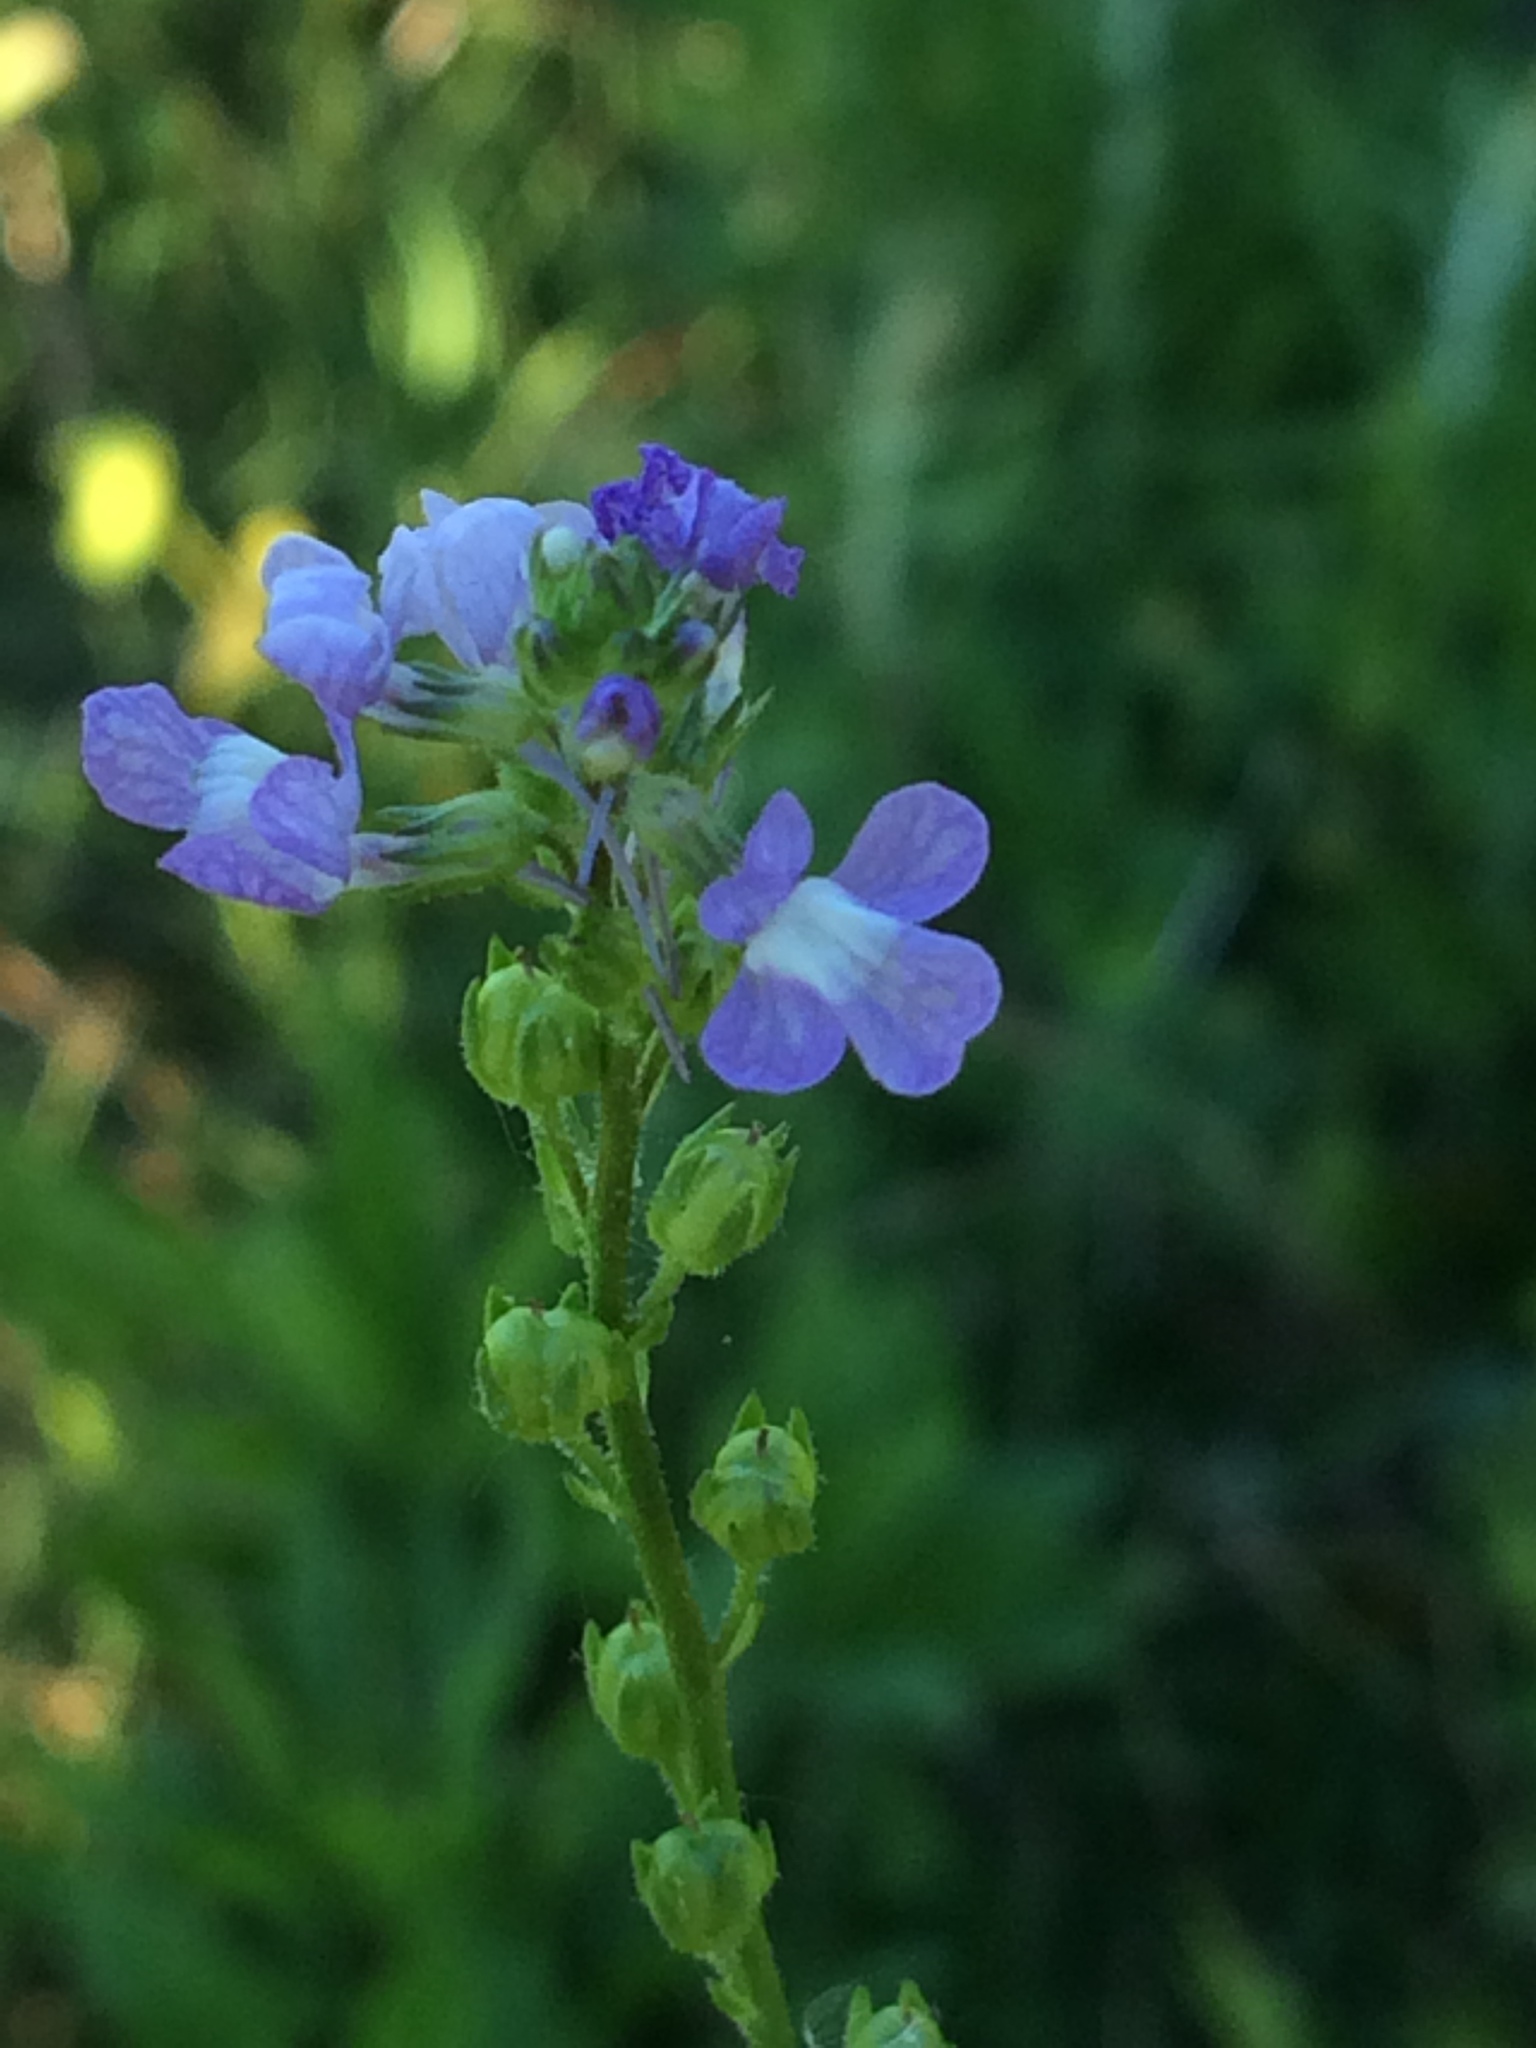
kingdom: Plantae
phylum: Tracheophyta
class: Magnoliopsida
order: Lamiales
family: Plantaginaceae
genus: Nuttallanthus
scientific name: Nuttallanthus canadensis
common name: Blue toadflax
